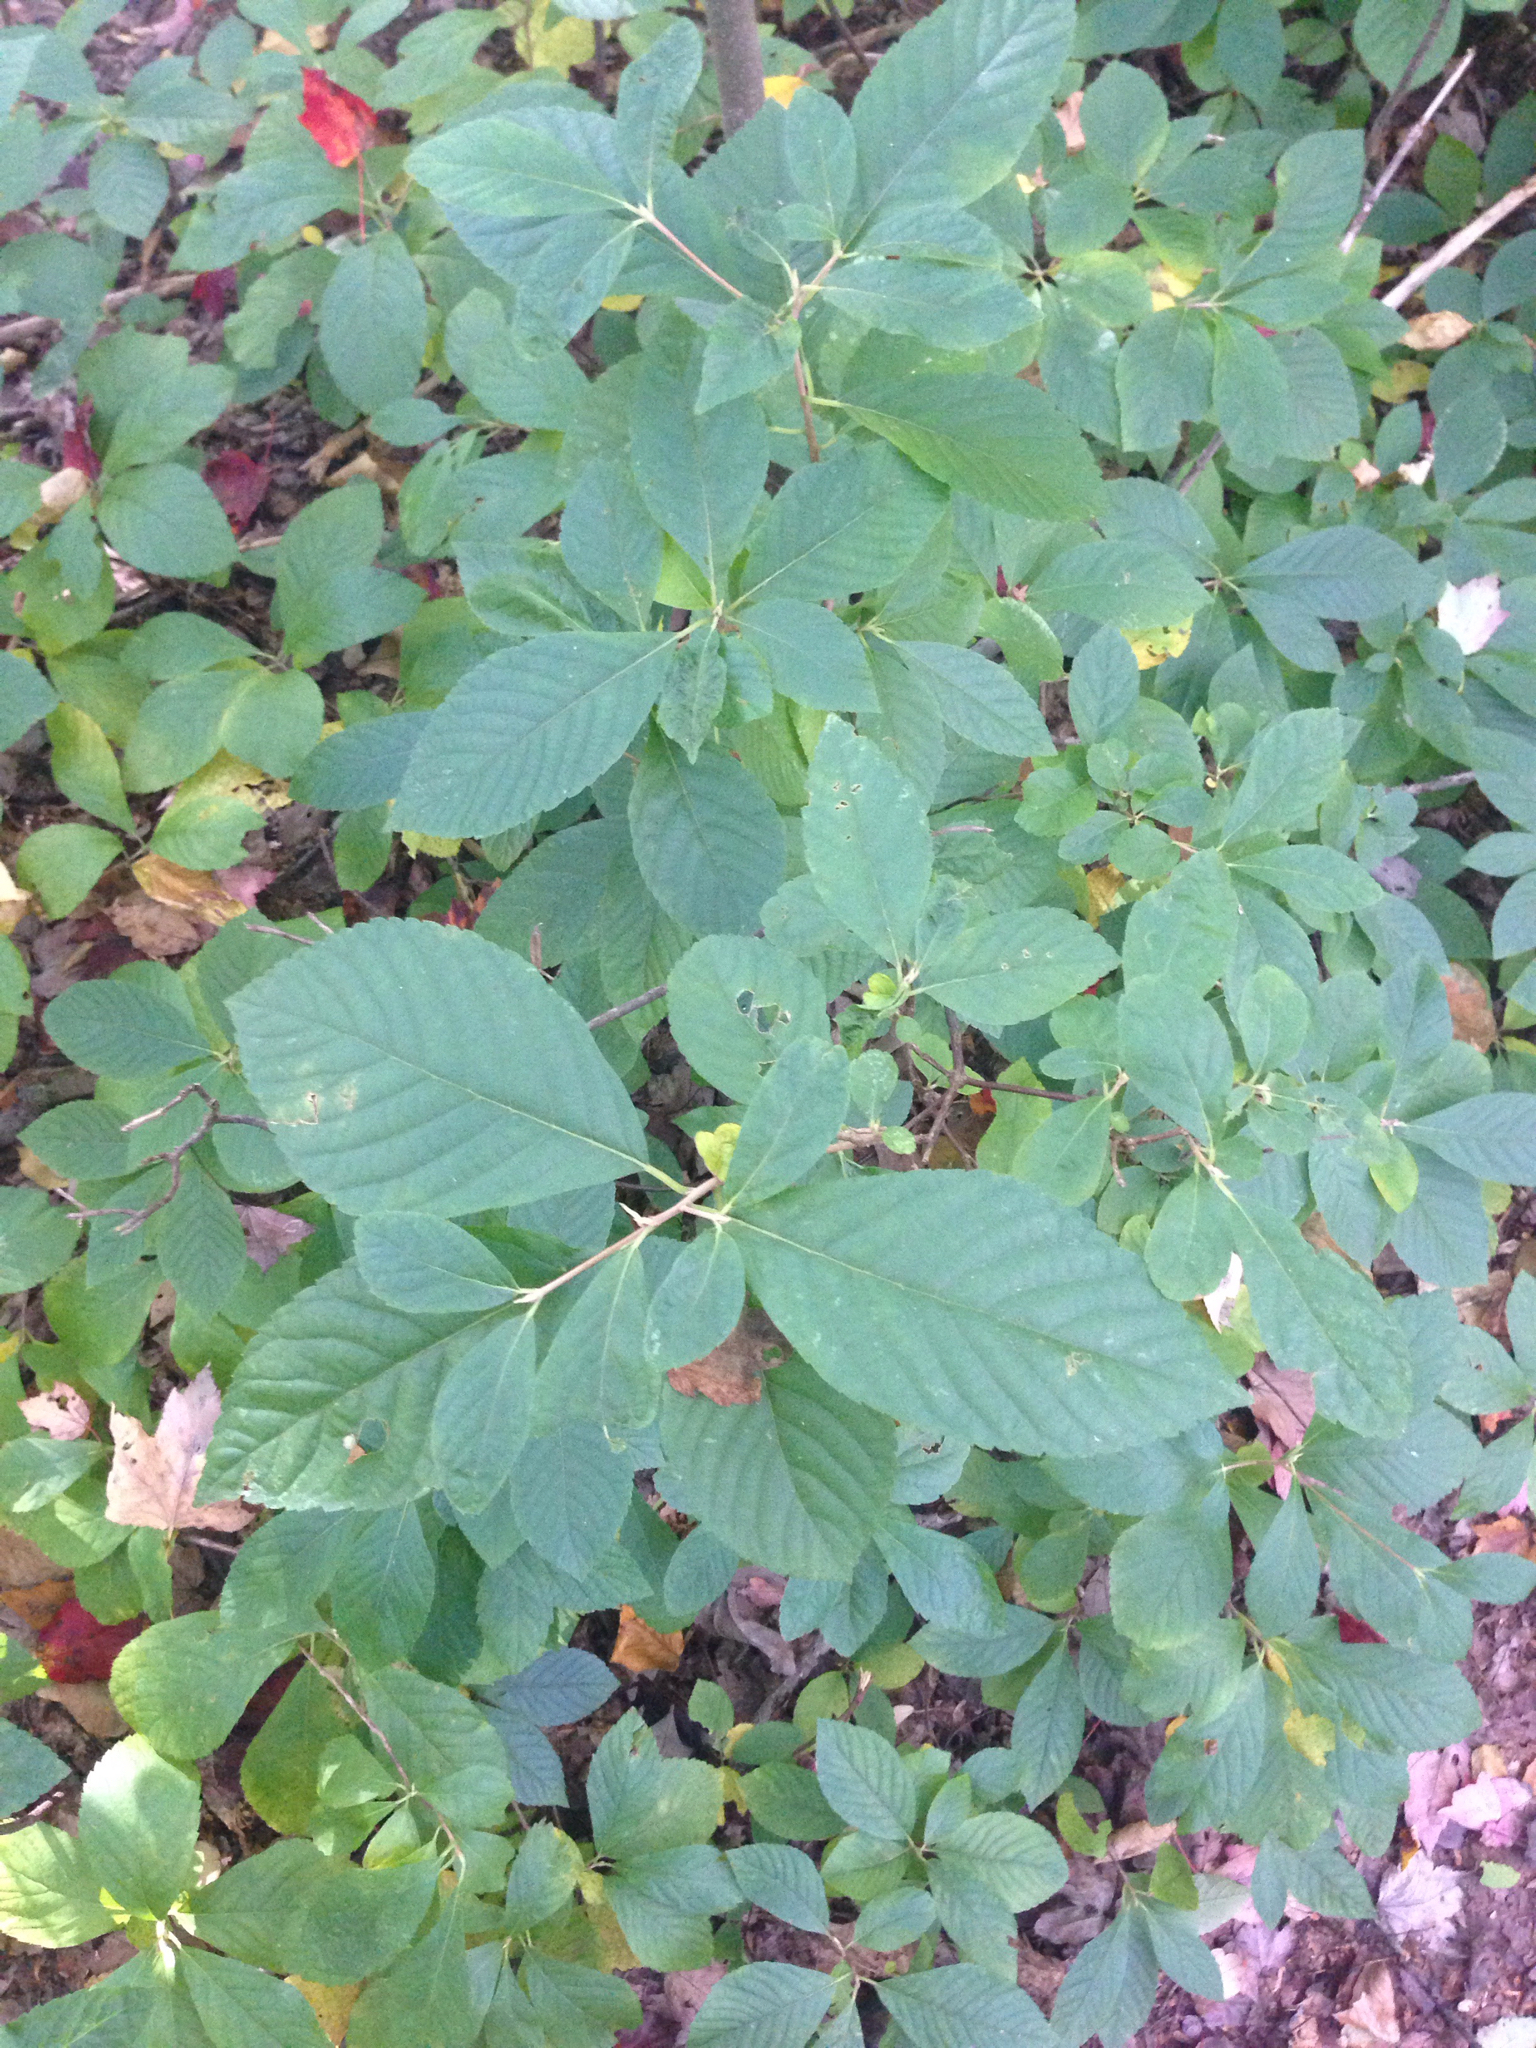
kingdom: Plantae
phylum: Tracheophyta
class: Magnoliopsida
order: Ericales
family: Clethraceae
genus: Clethra
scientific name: Clethra alnifolia
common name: Sweet pepperbush
